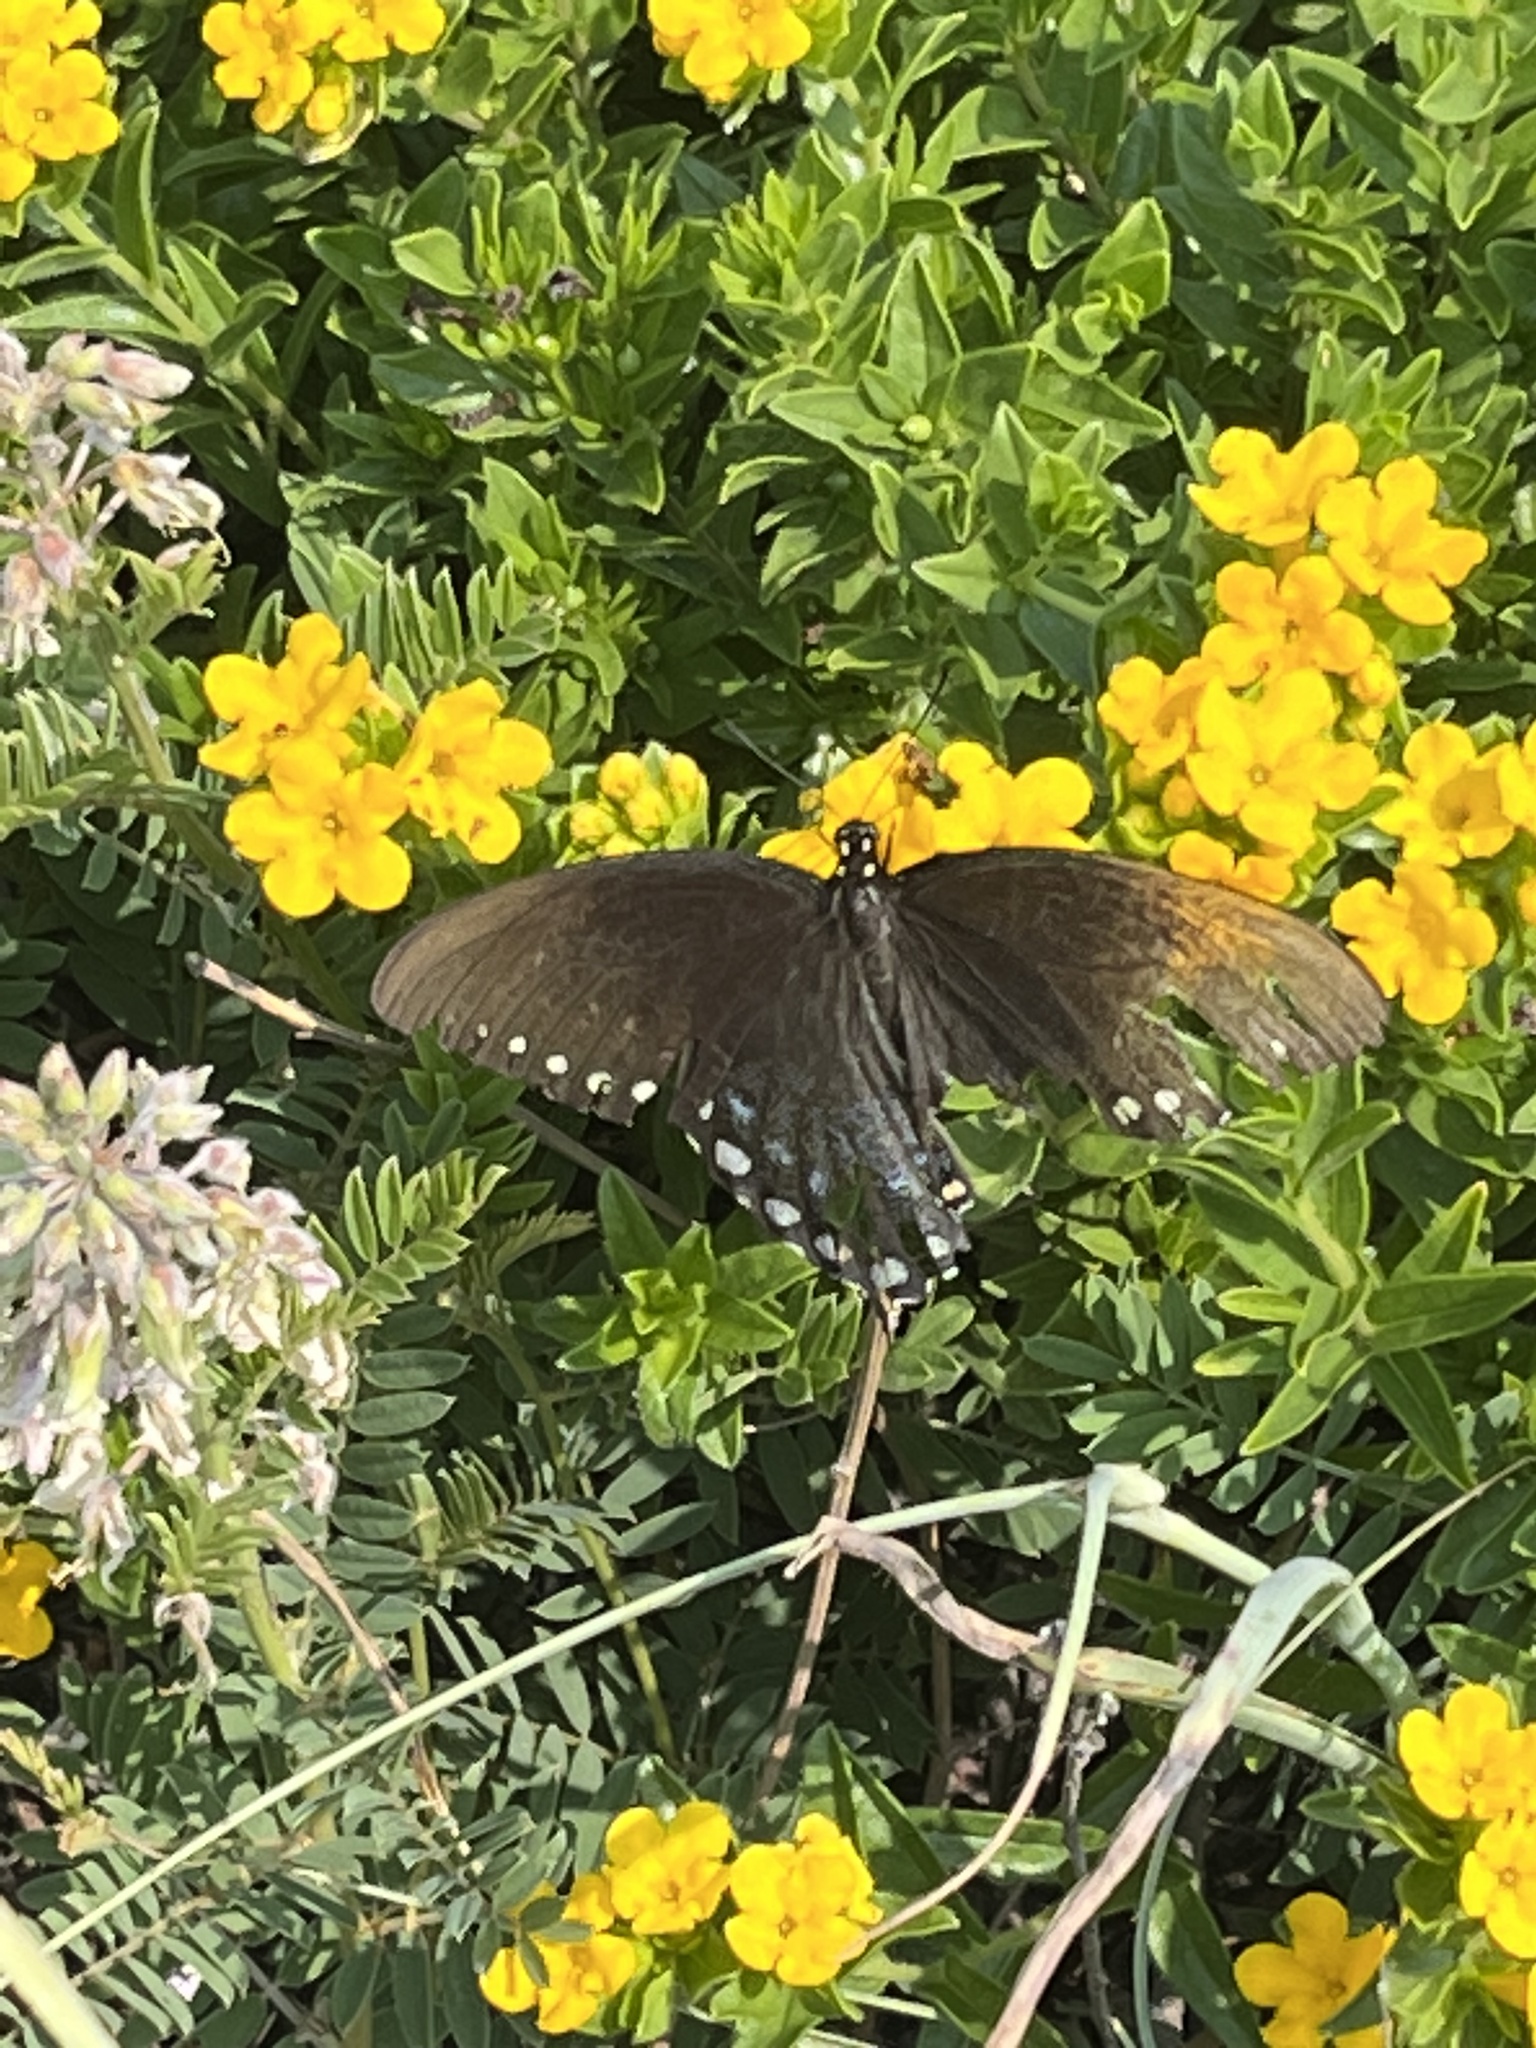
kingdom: Animalia
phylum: Arthropoda
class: Insecta
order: Lepidoptera
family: Papilionidae
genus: Papilio
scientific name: Papilio troilus
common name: Spicebush swallowtail
